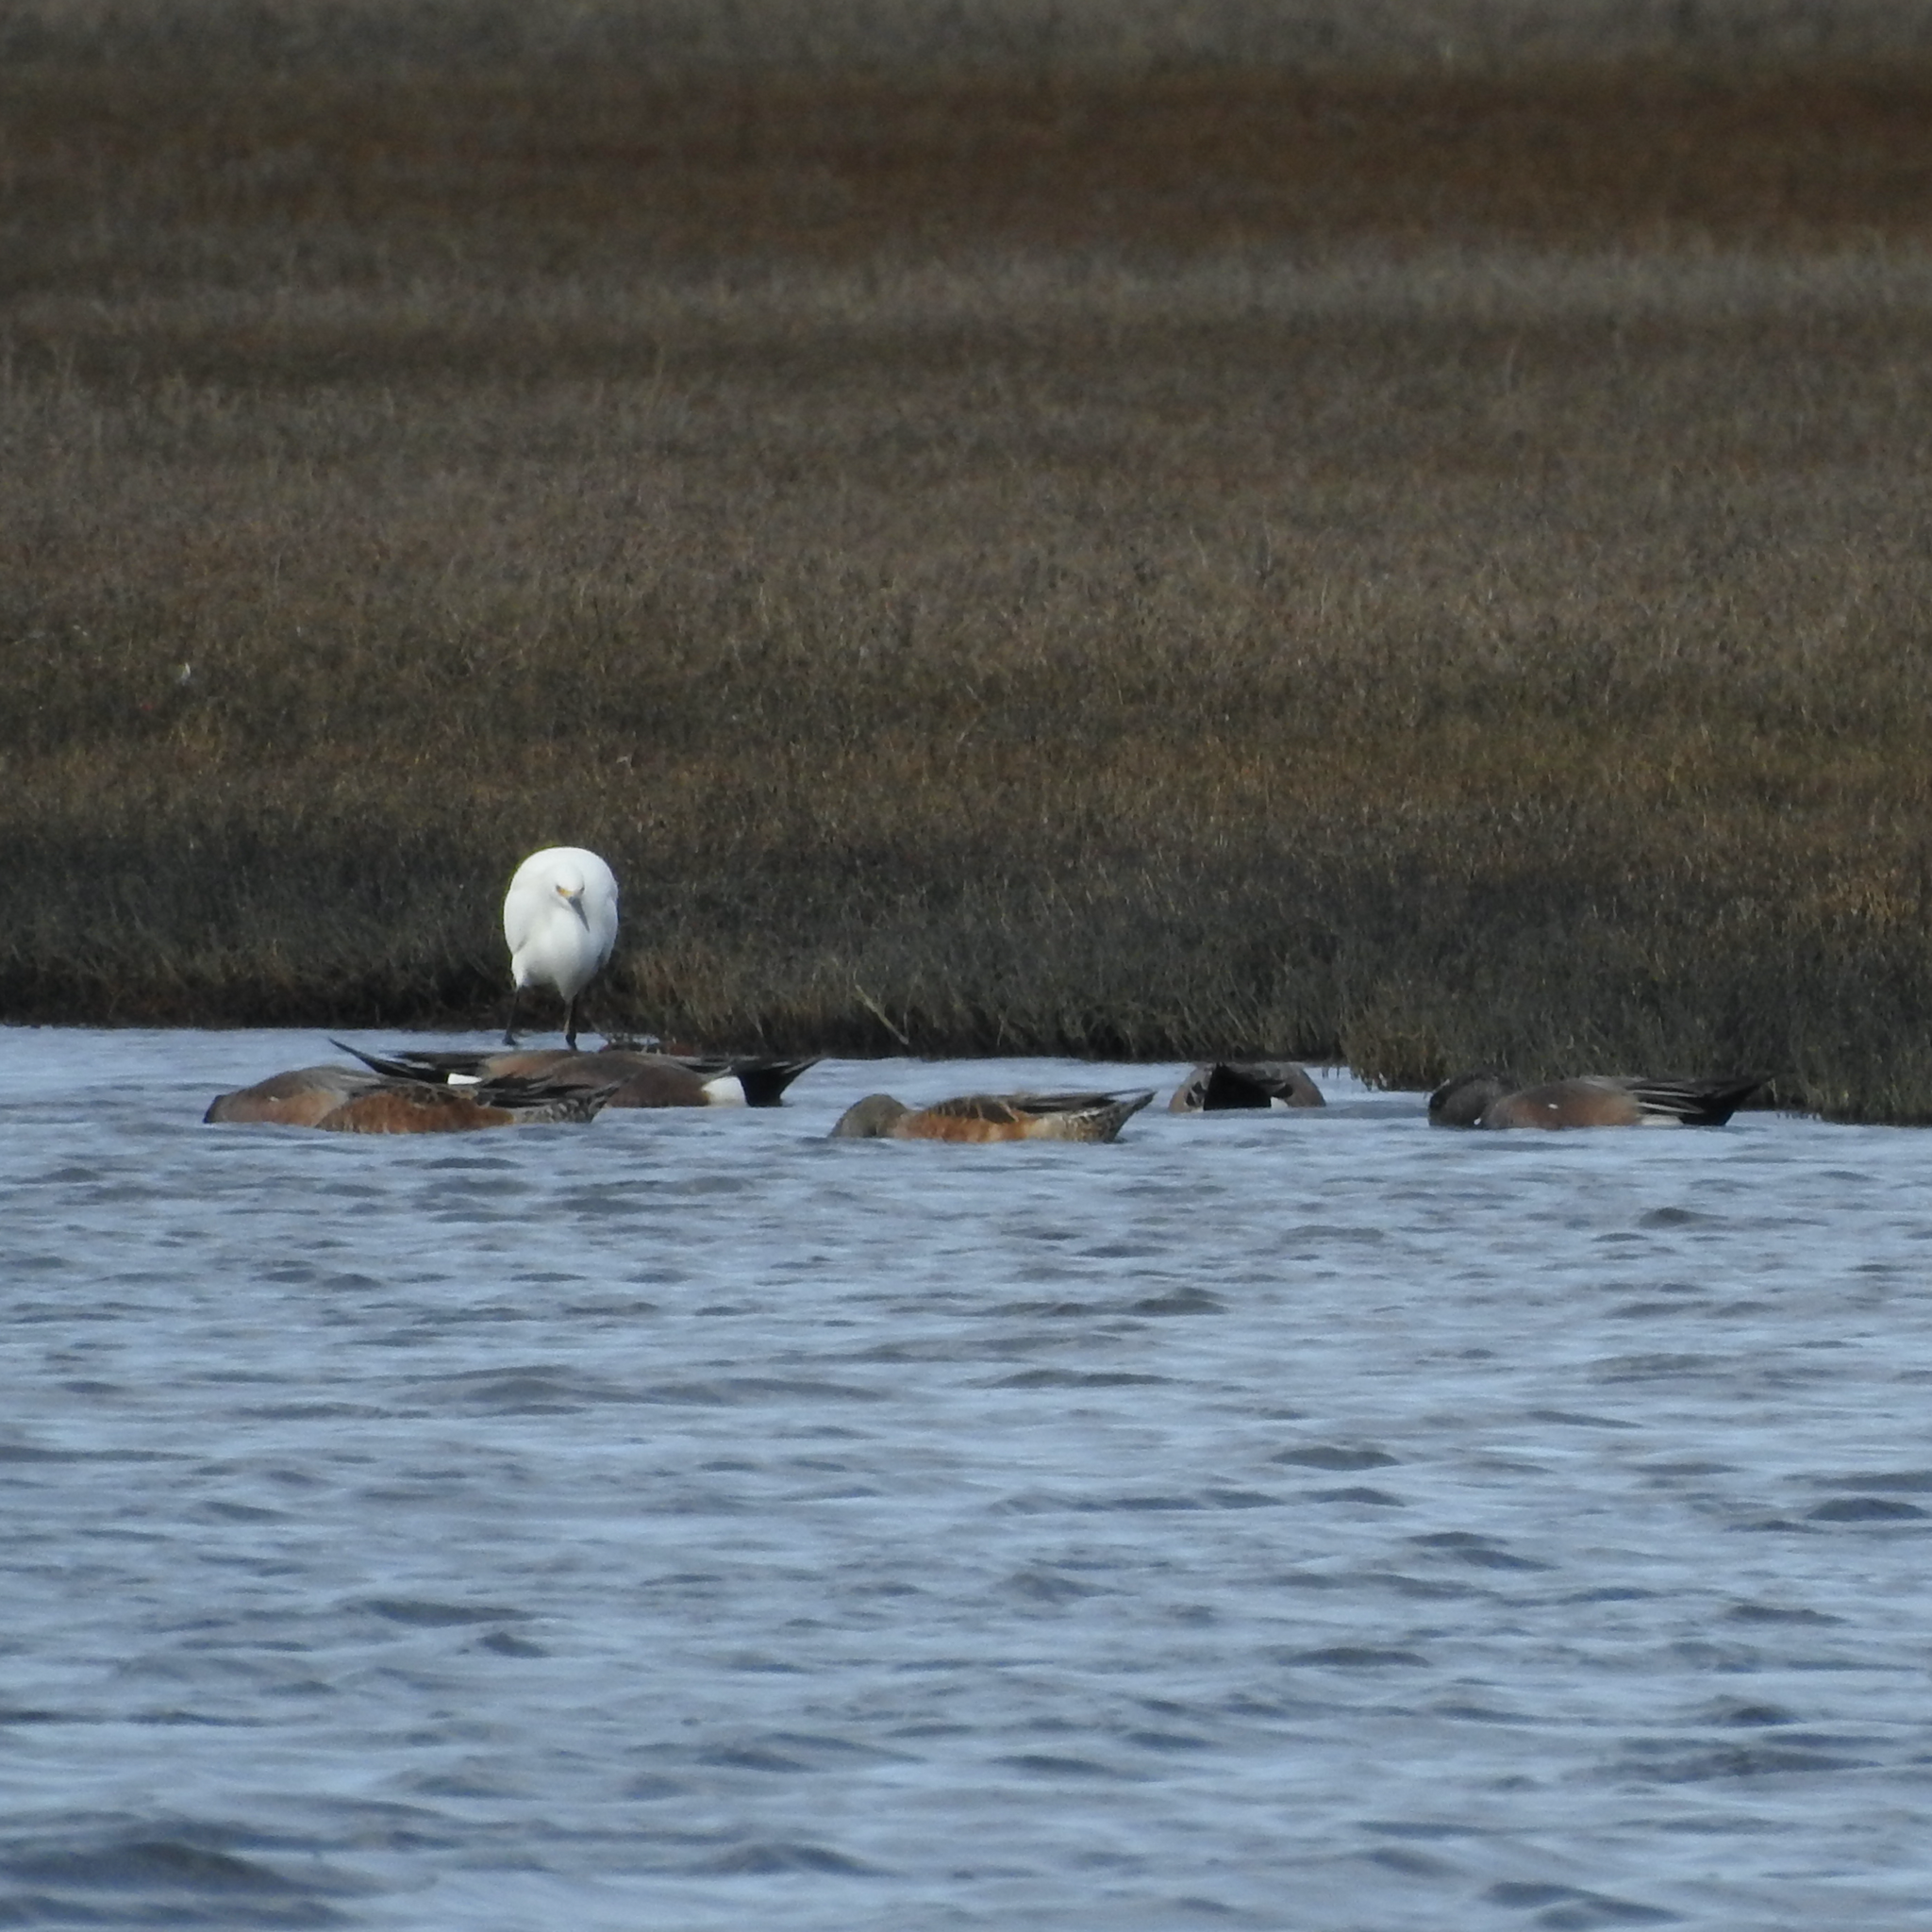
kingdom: Animalia
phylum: Chordata
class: Aves
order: Pelecaniformes
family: Ardeidae
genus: Egretta
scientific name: Egretta thula
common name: Snowy egret
